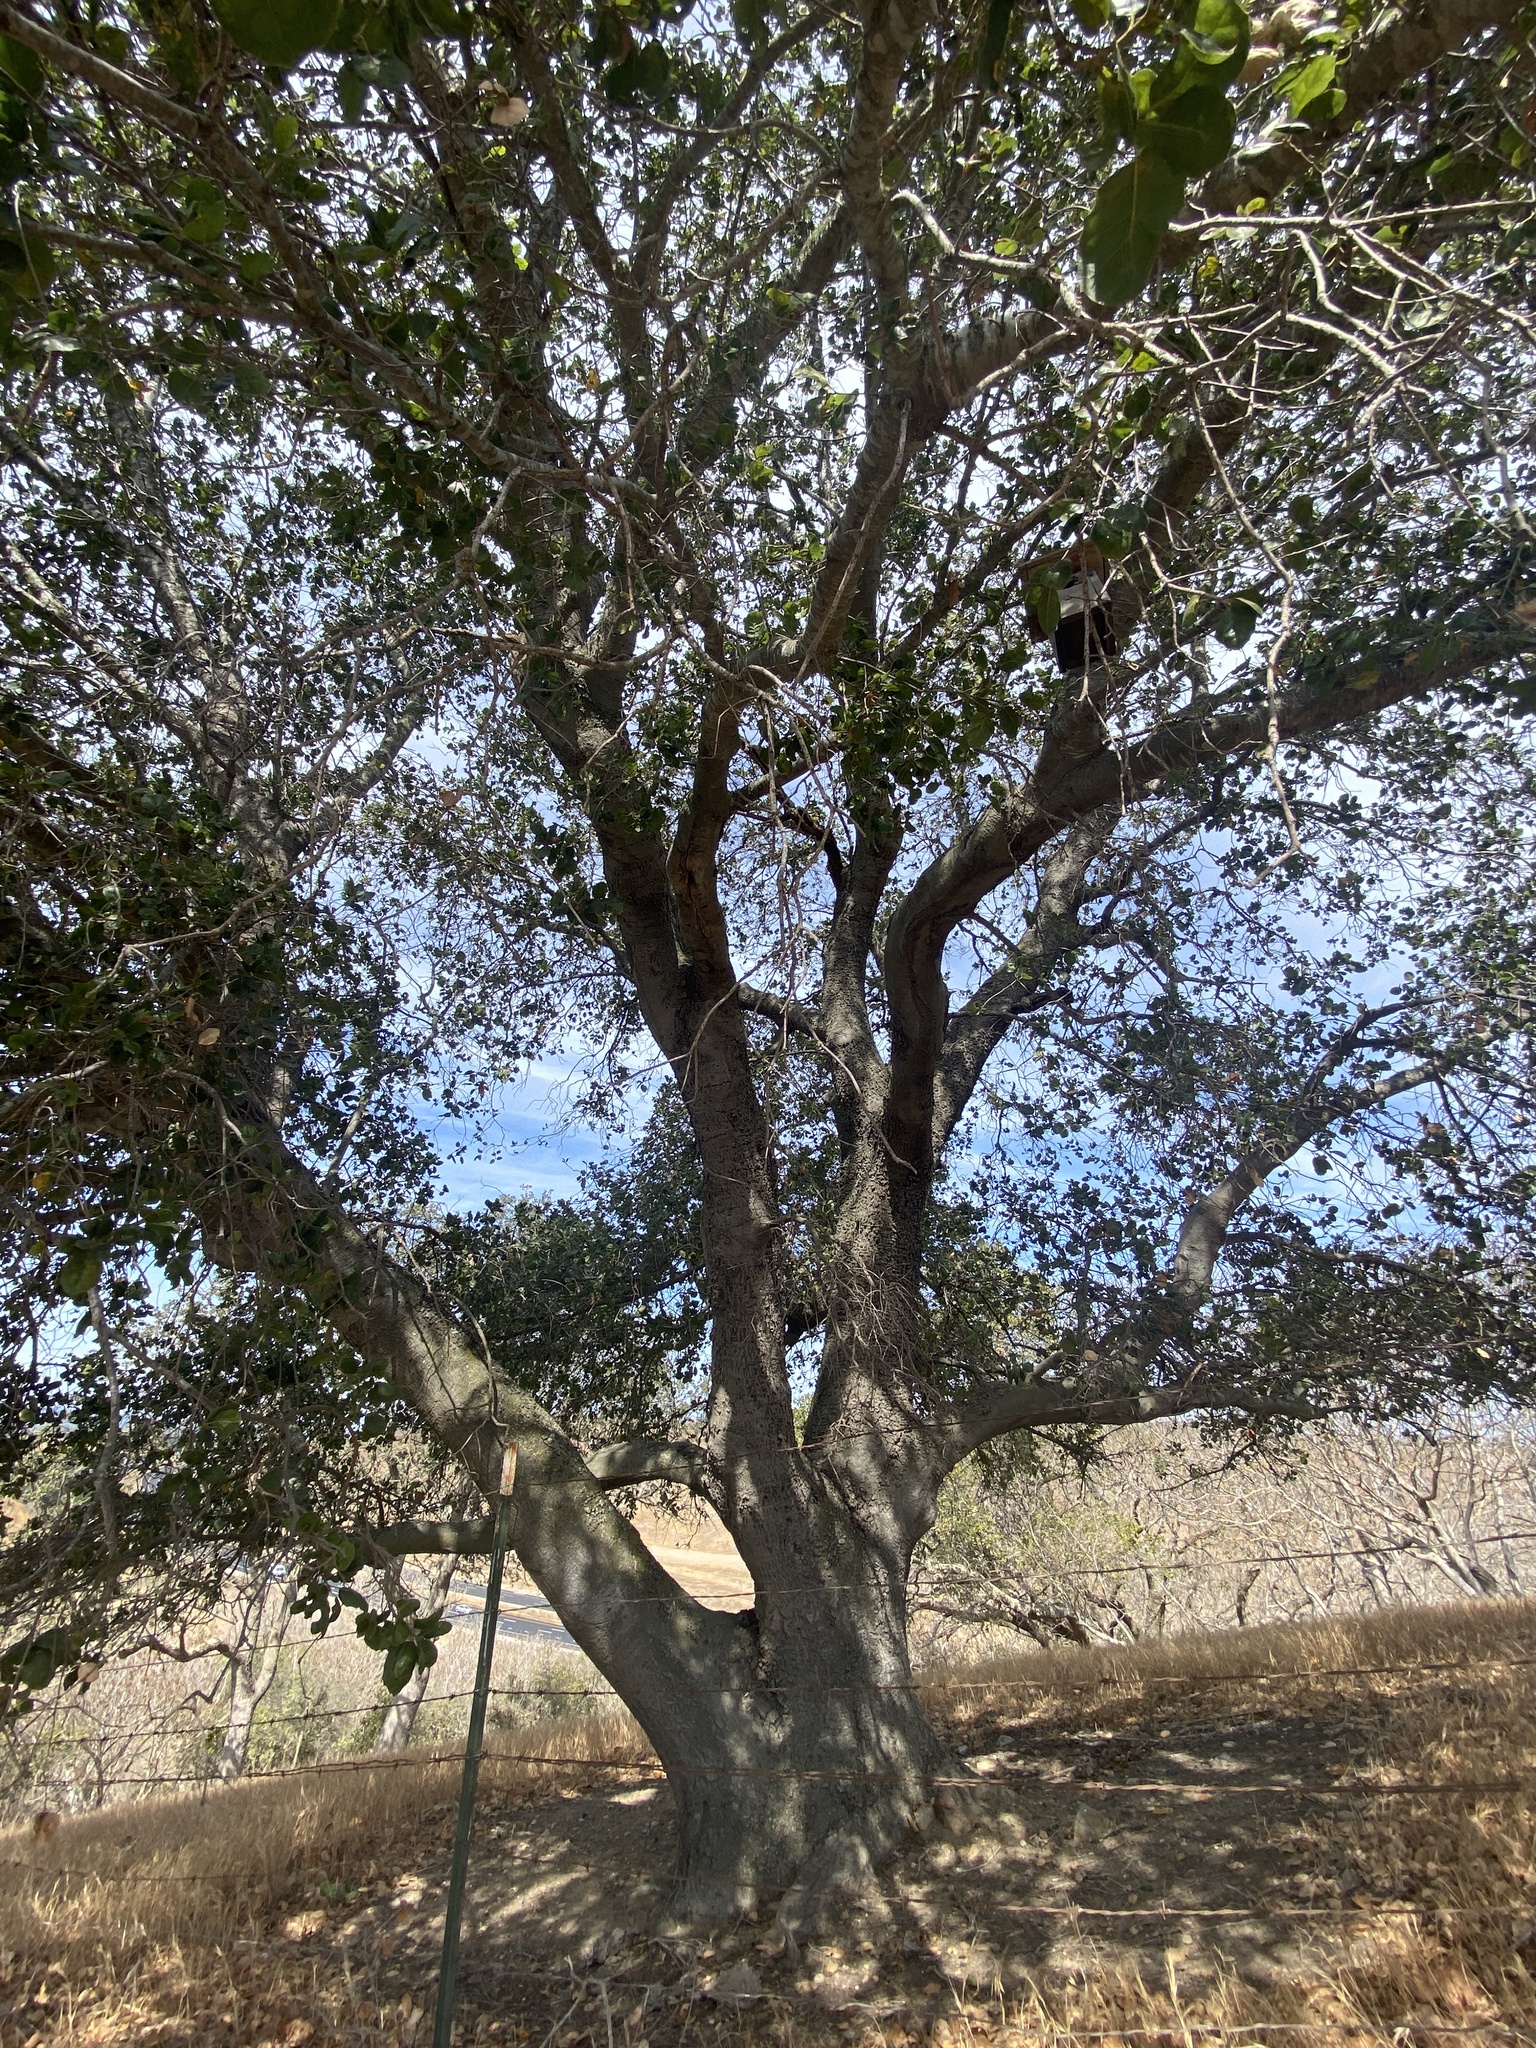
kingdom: Plantae
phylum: Tracheophyta
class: Magnoliopsida
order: Fagales
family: Fagaceae
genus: Quercus
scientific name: Quercus agrifolia
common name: California live oak
